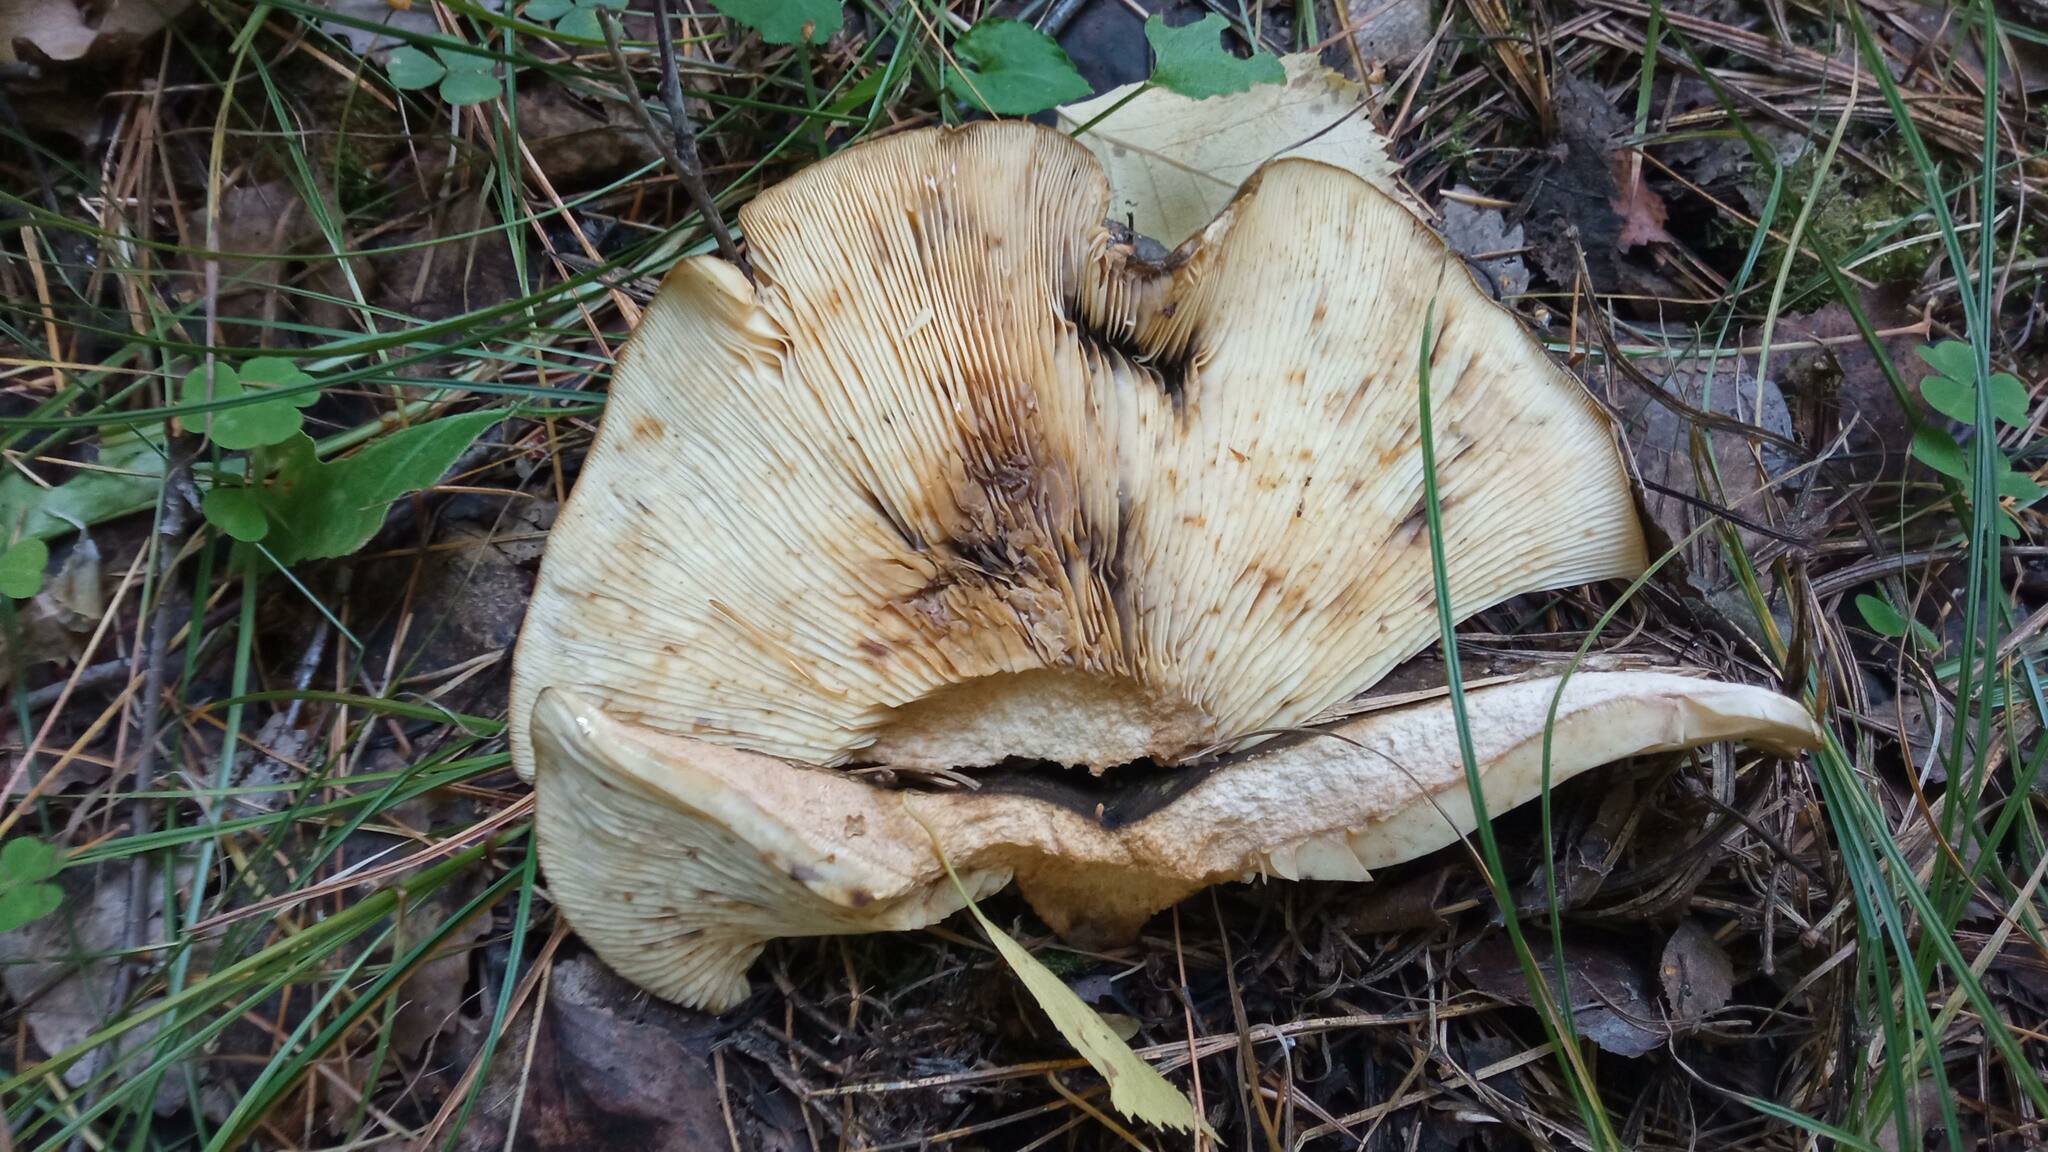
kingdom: Fungi
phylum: Basidiomycota
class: Agaricomycetes
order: Russulales
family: Russulaceae
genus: Lactarius
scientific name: Lactarius turpis
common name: Ugly milk-cap
